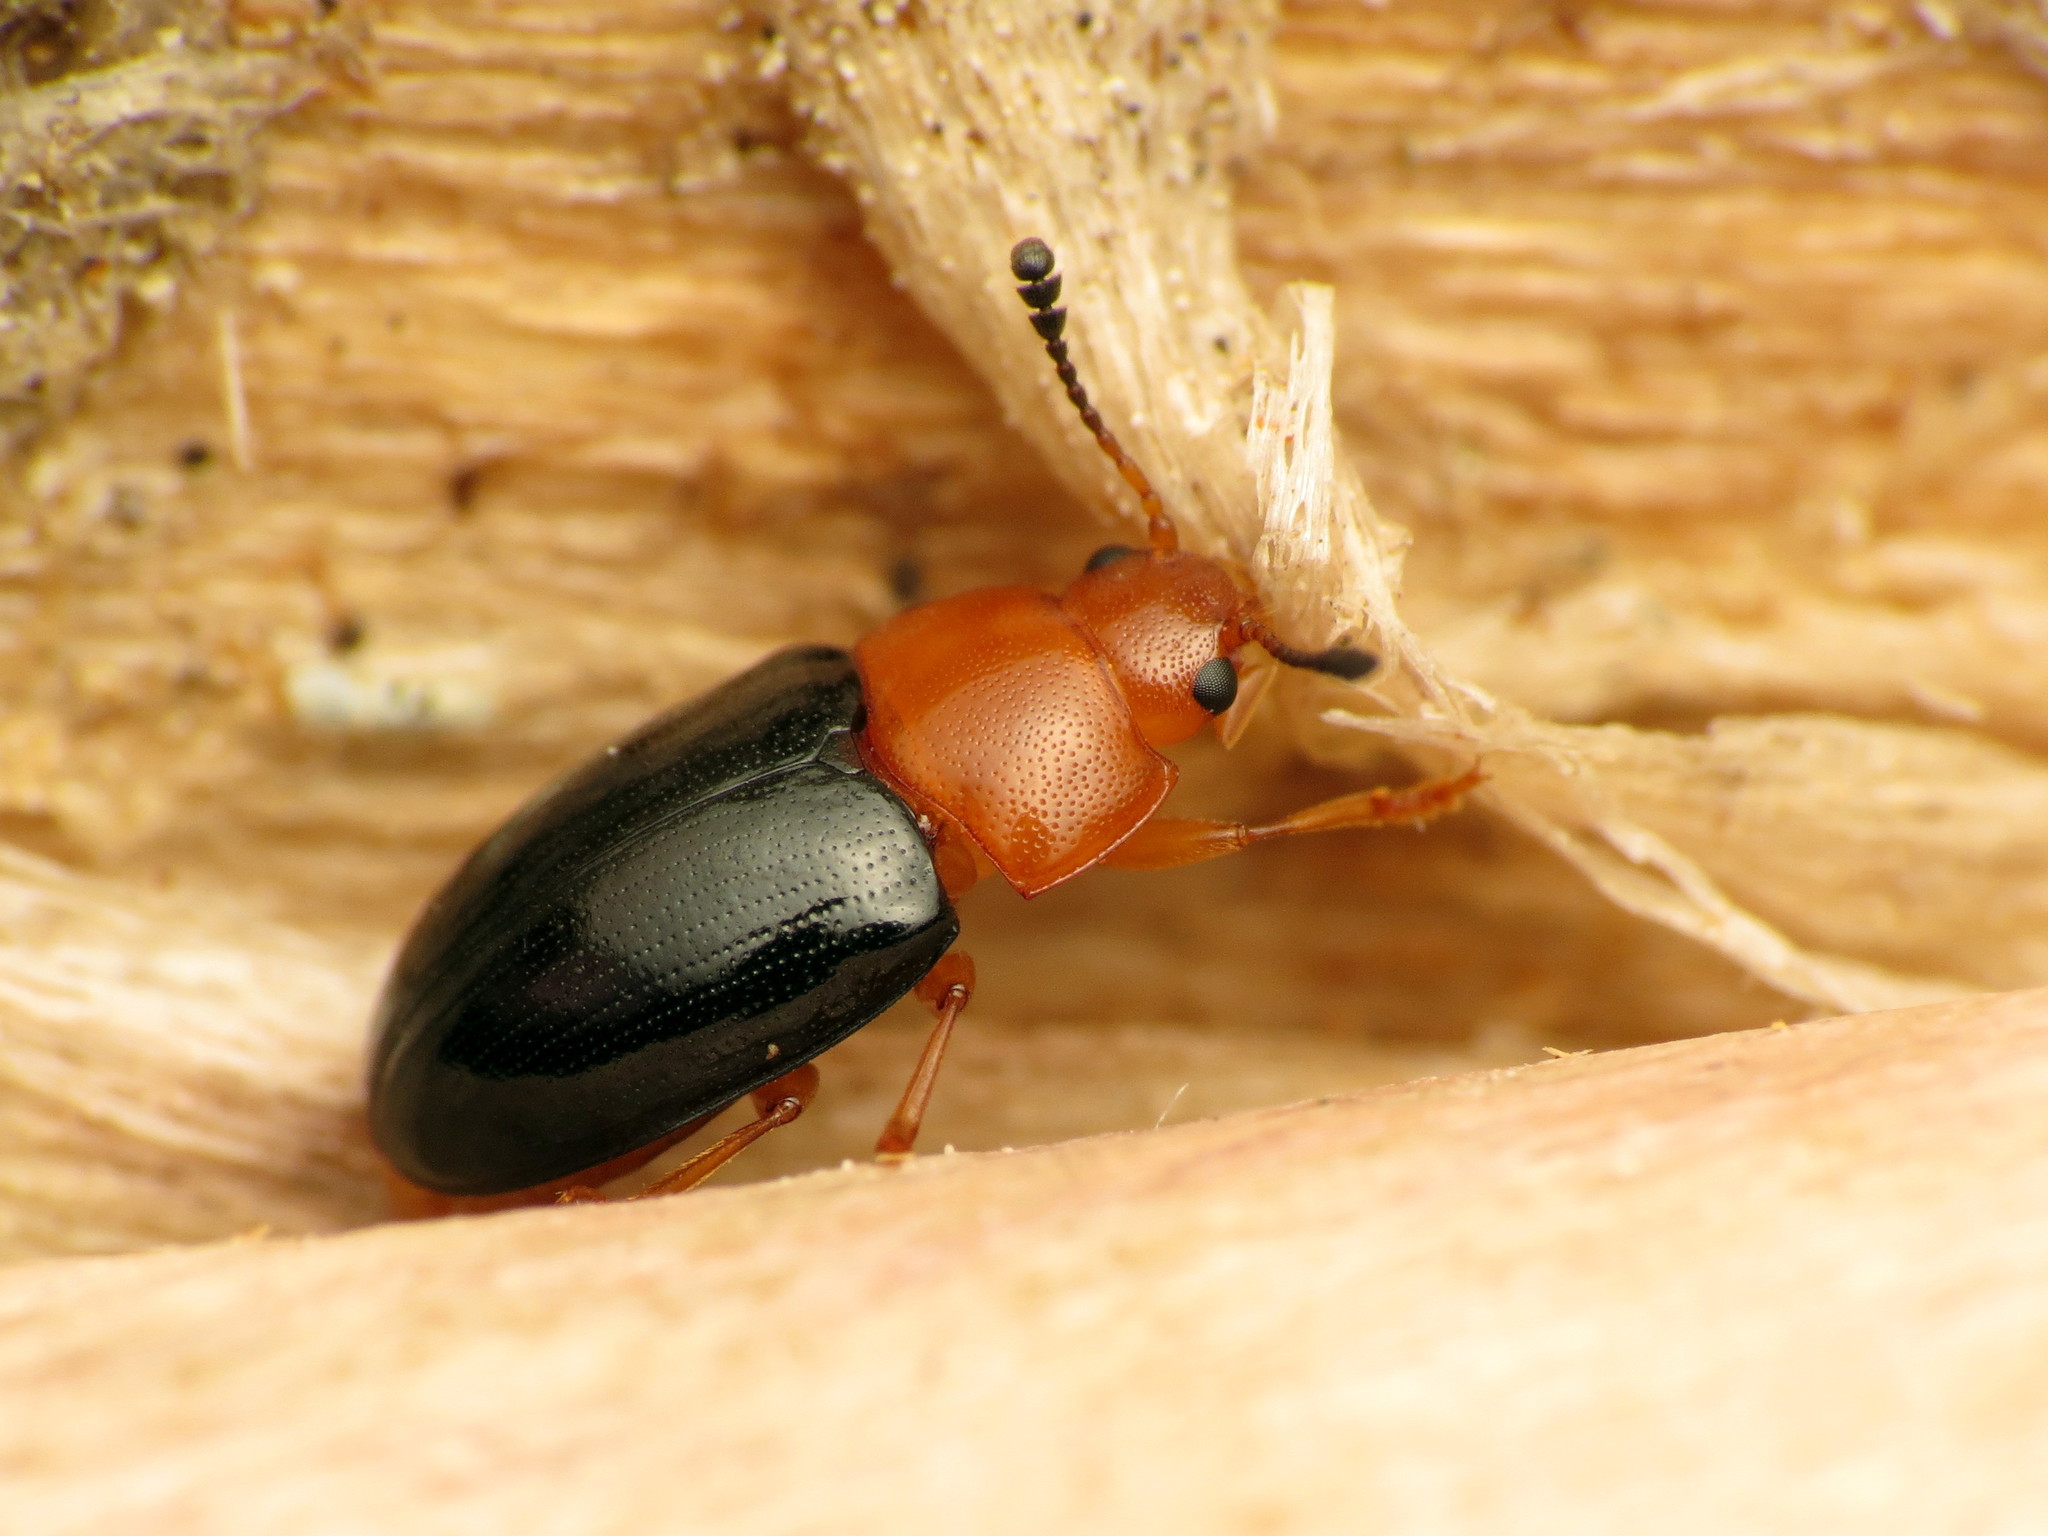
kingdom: Animalia
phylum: Arthropoda
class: Insecta
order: Coleoptera
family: Erotylidae
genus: Triplax
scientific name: Triplax thoracica
